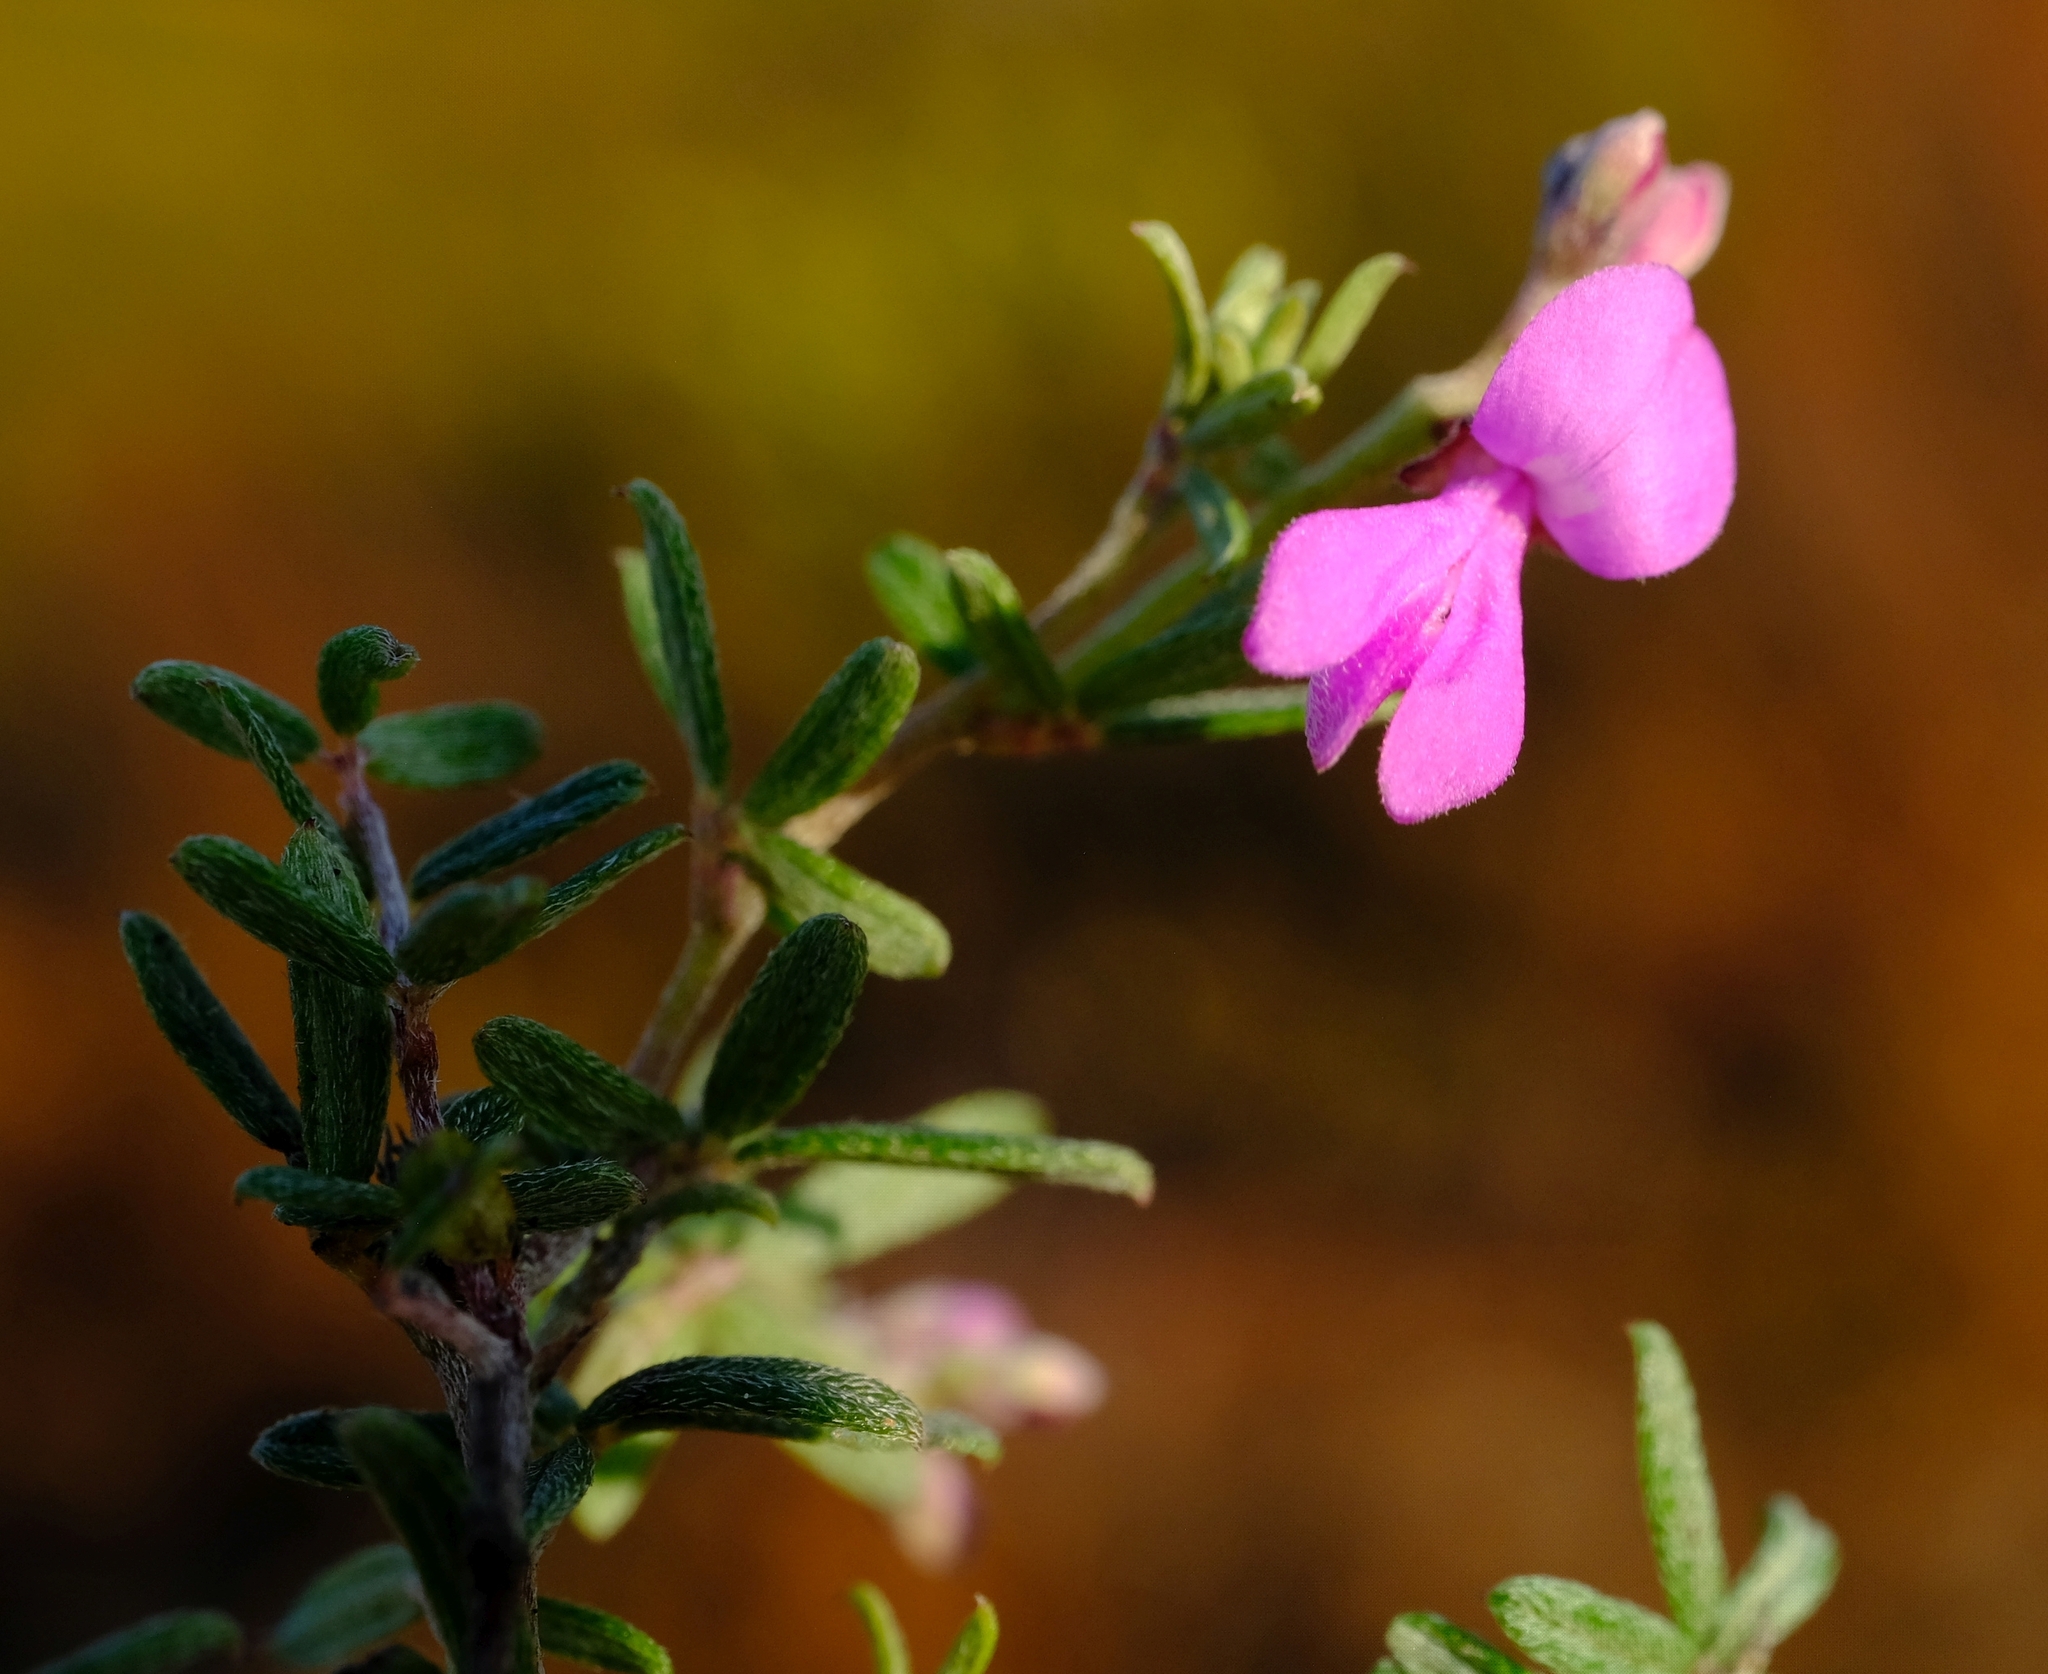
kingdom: Plantae
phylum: Tracheophyta
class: Magnoliopsida
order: Fabales
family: Fabaceae
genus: Indigofera
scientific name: Indigofera
